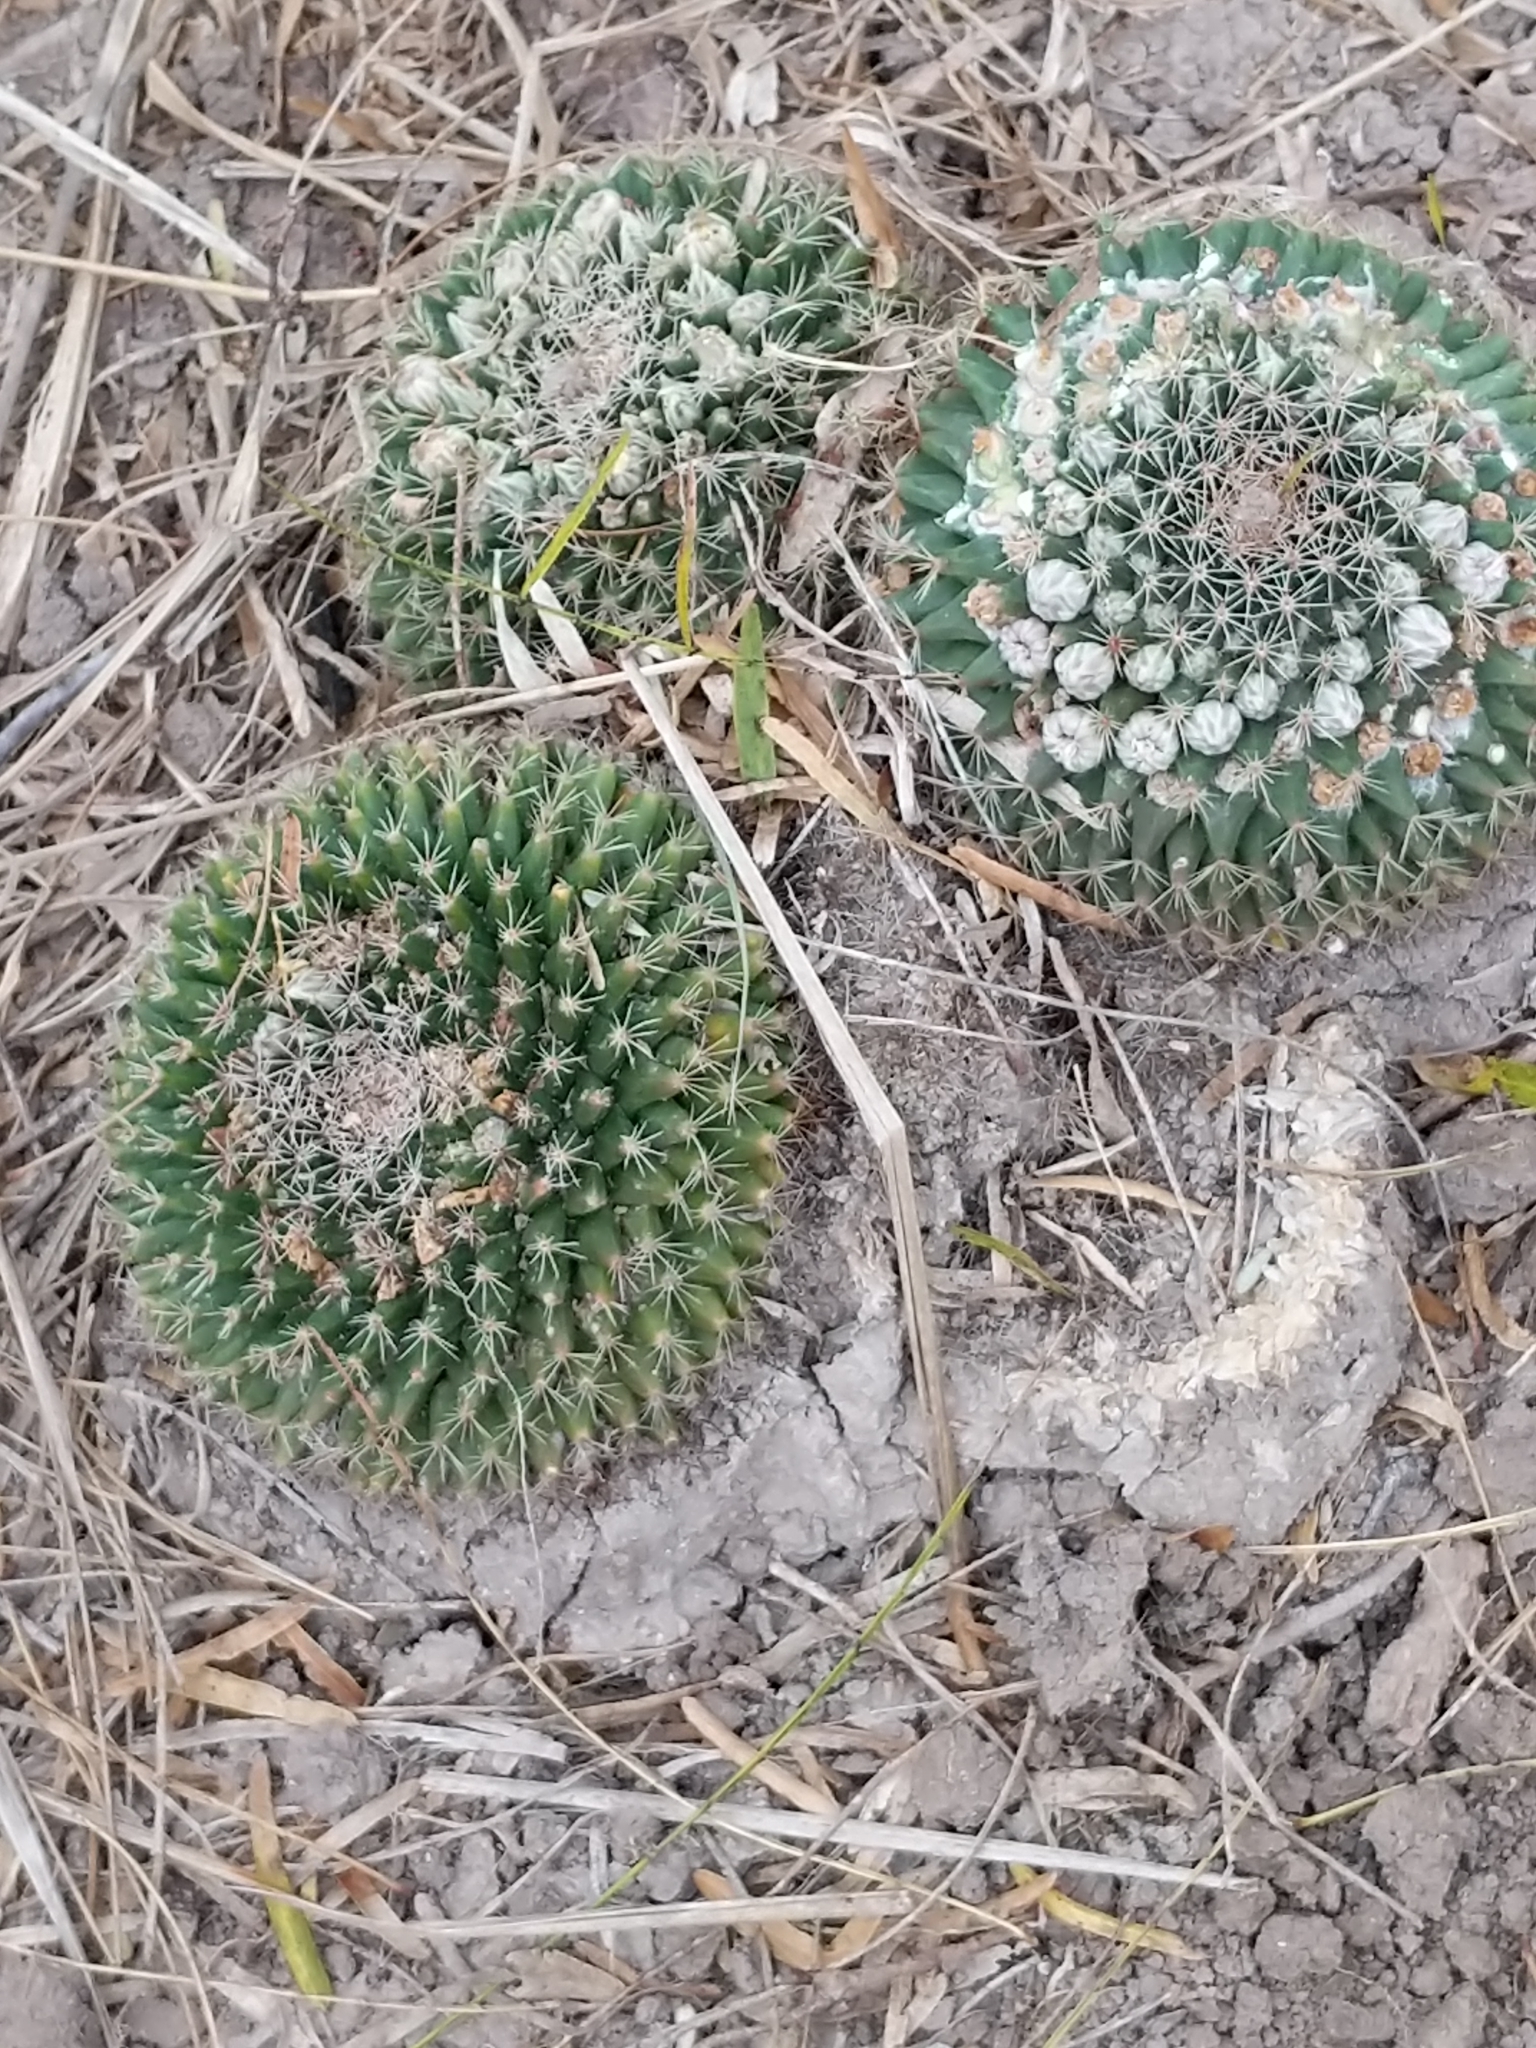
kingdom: Plantae
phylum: Tracheophyta
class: Magnoliopsida
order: Caryophyllales
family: Cactaceae
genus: Mammillaria
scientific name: Mammillaria heyderi
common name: Little nipple cactus
